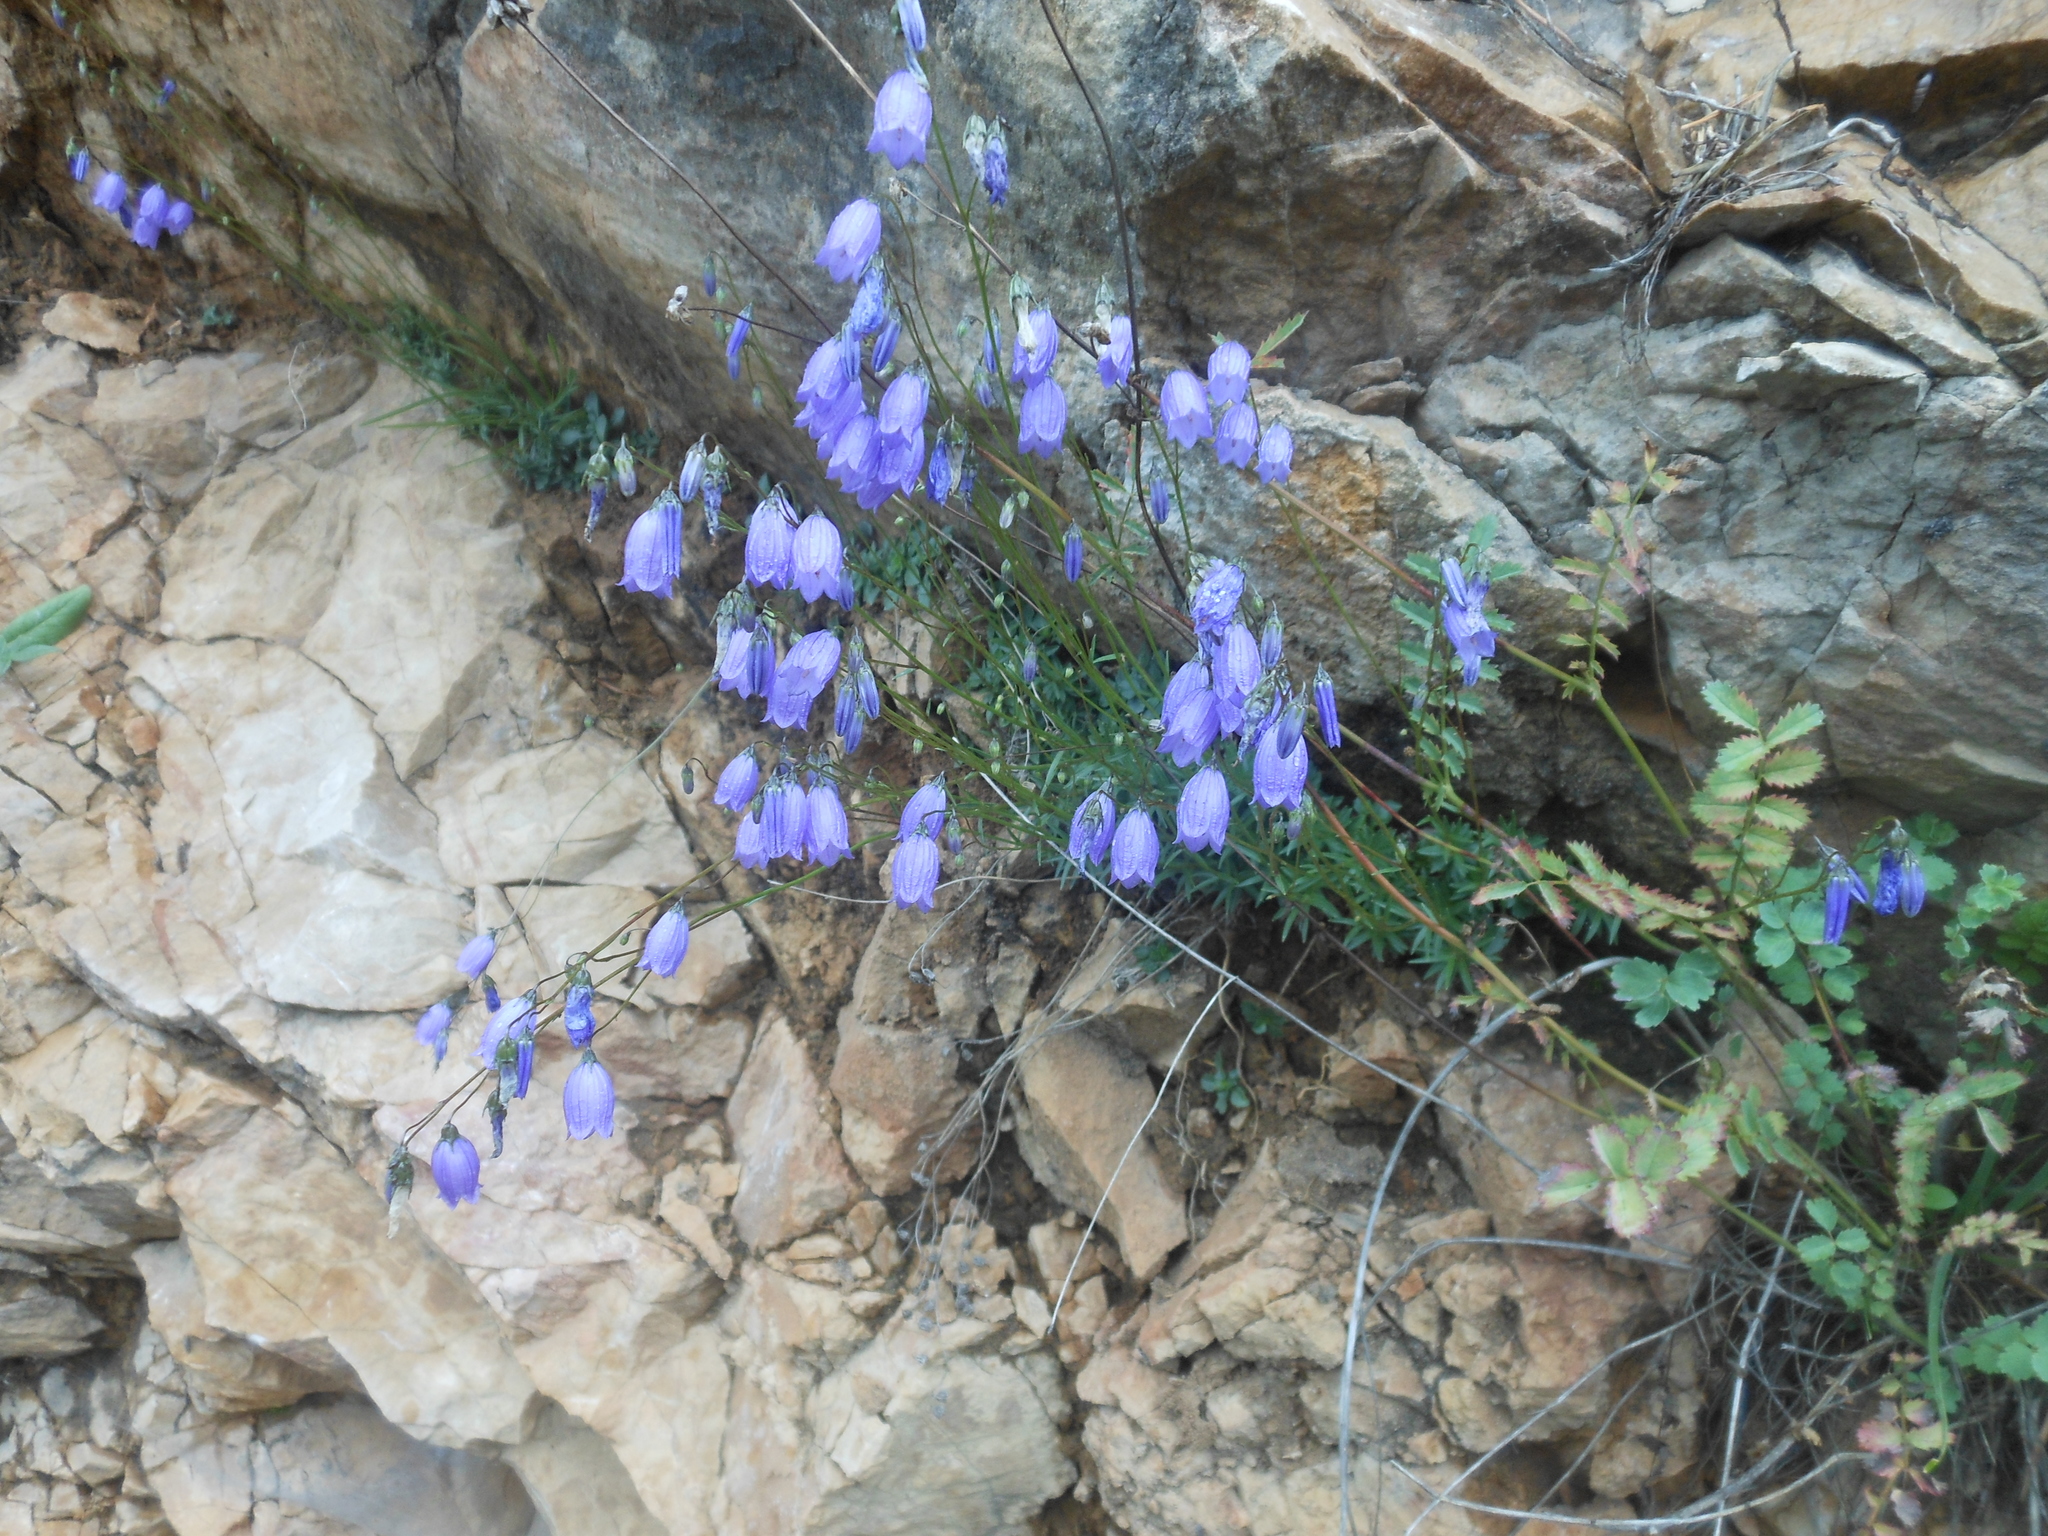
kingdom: Plantae
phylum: Tracheophyta
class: Magnoliopsida
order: Asterales
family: Campanulaceae
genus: Campanula
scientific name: Campanula cespitosa
